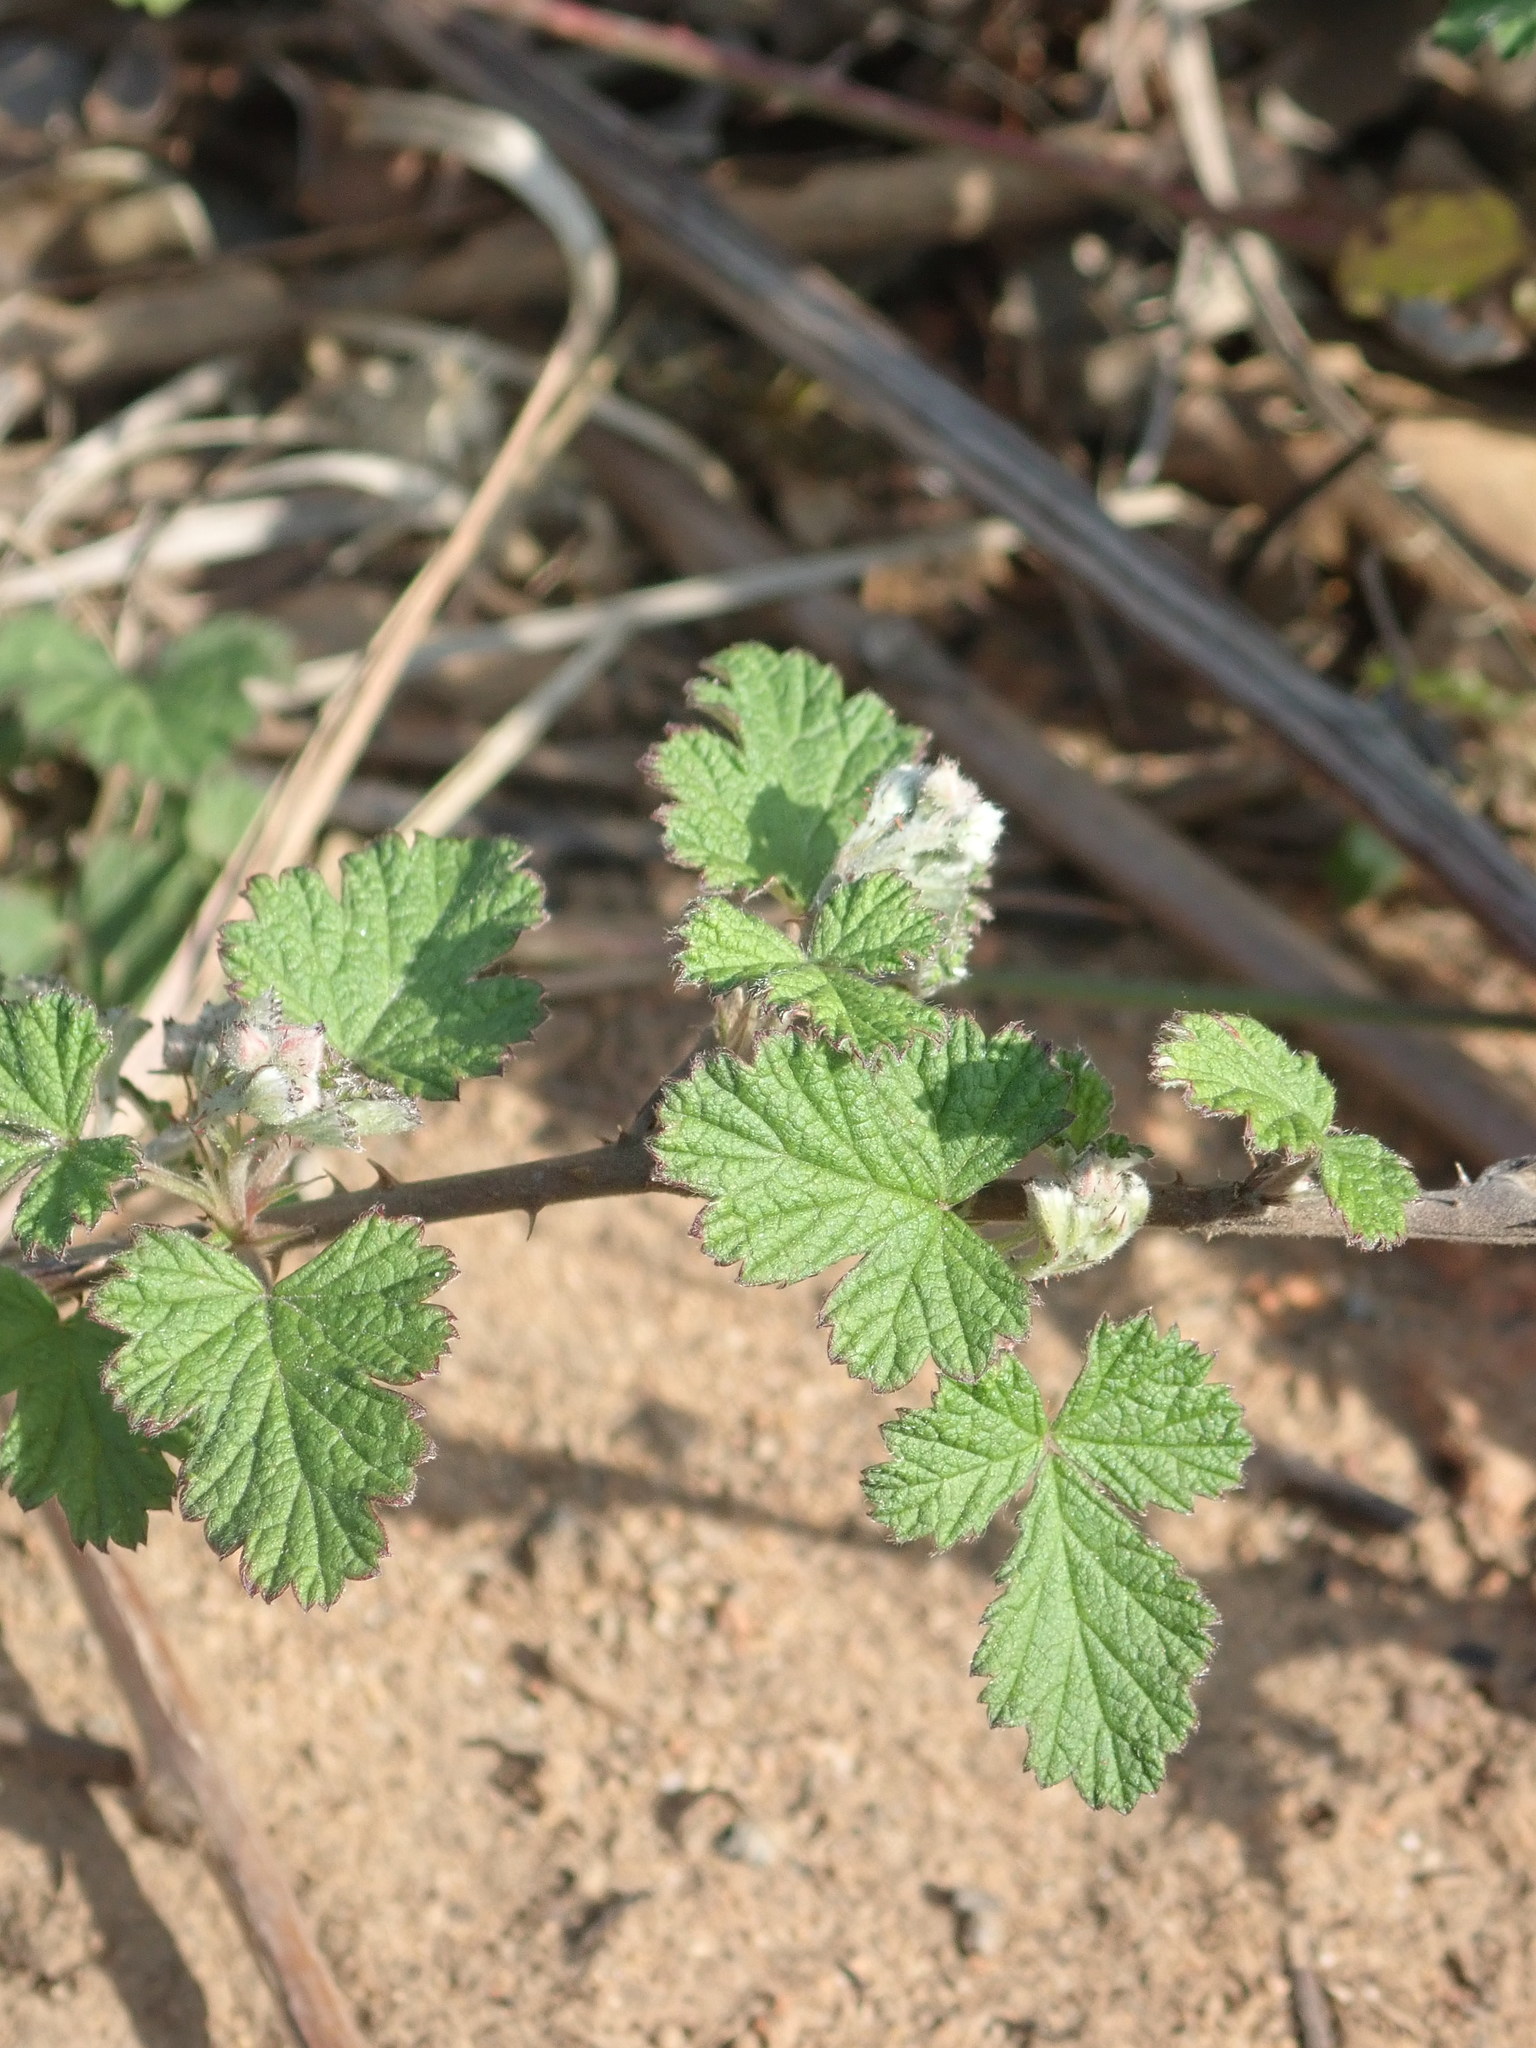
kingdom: Plantae
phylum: Tracheophyta
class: Magnoliopsida
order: Rosales
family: Rosaceae
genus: Rubus
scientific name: Rubus parvifolius
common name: Threeleaf blackberry
